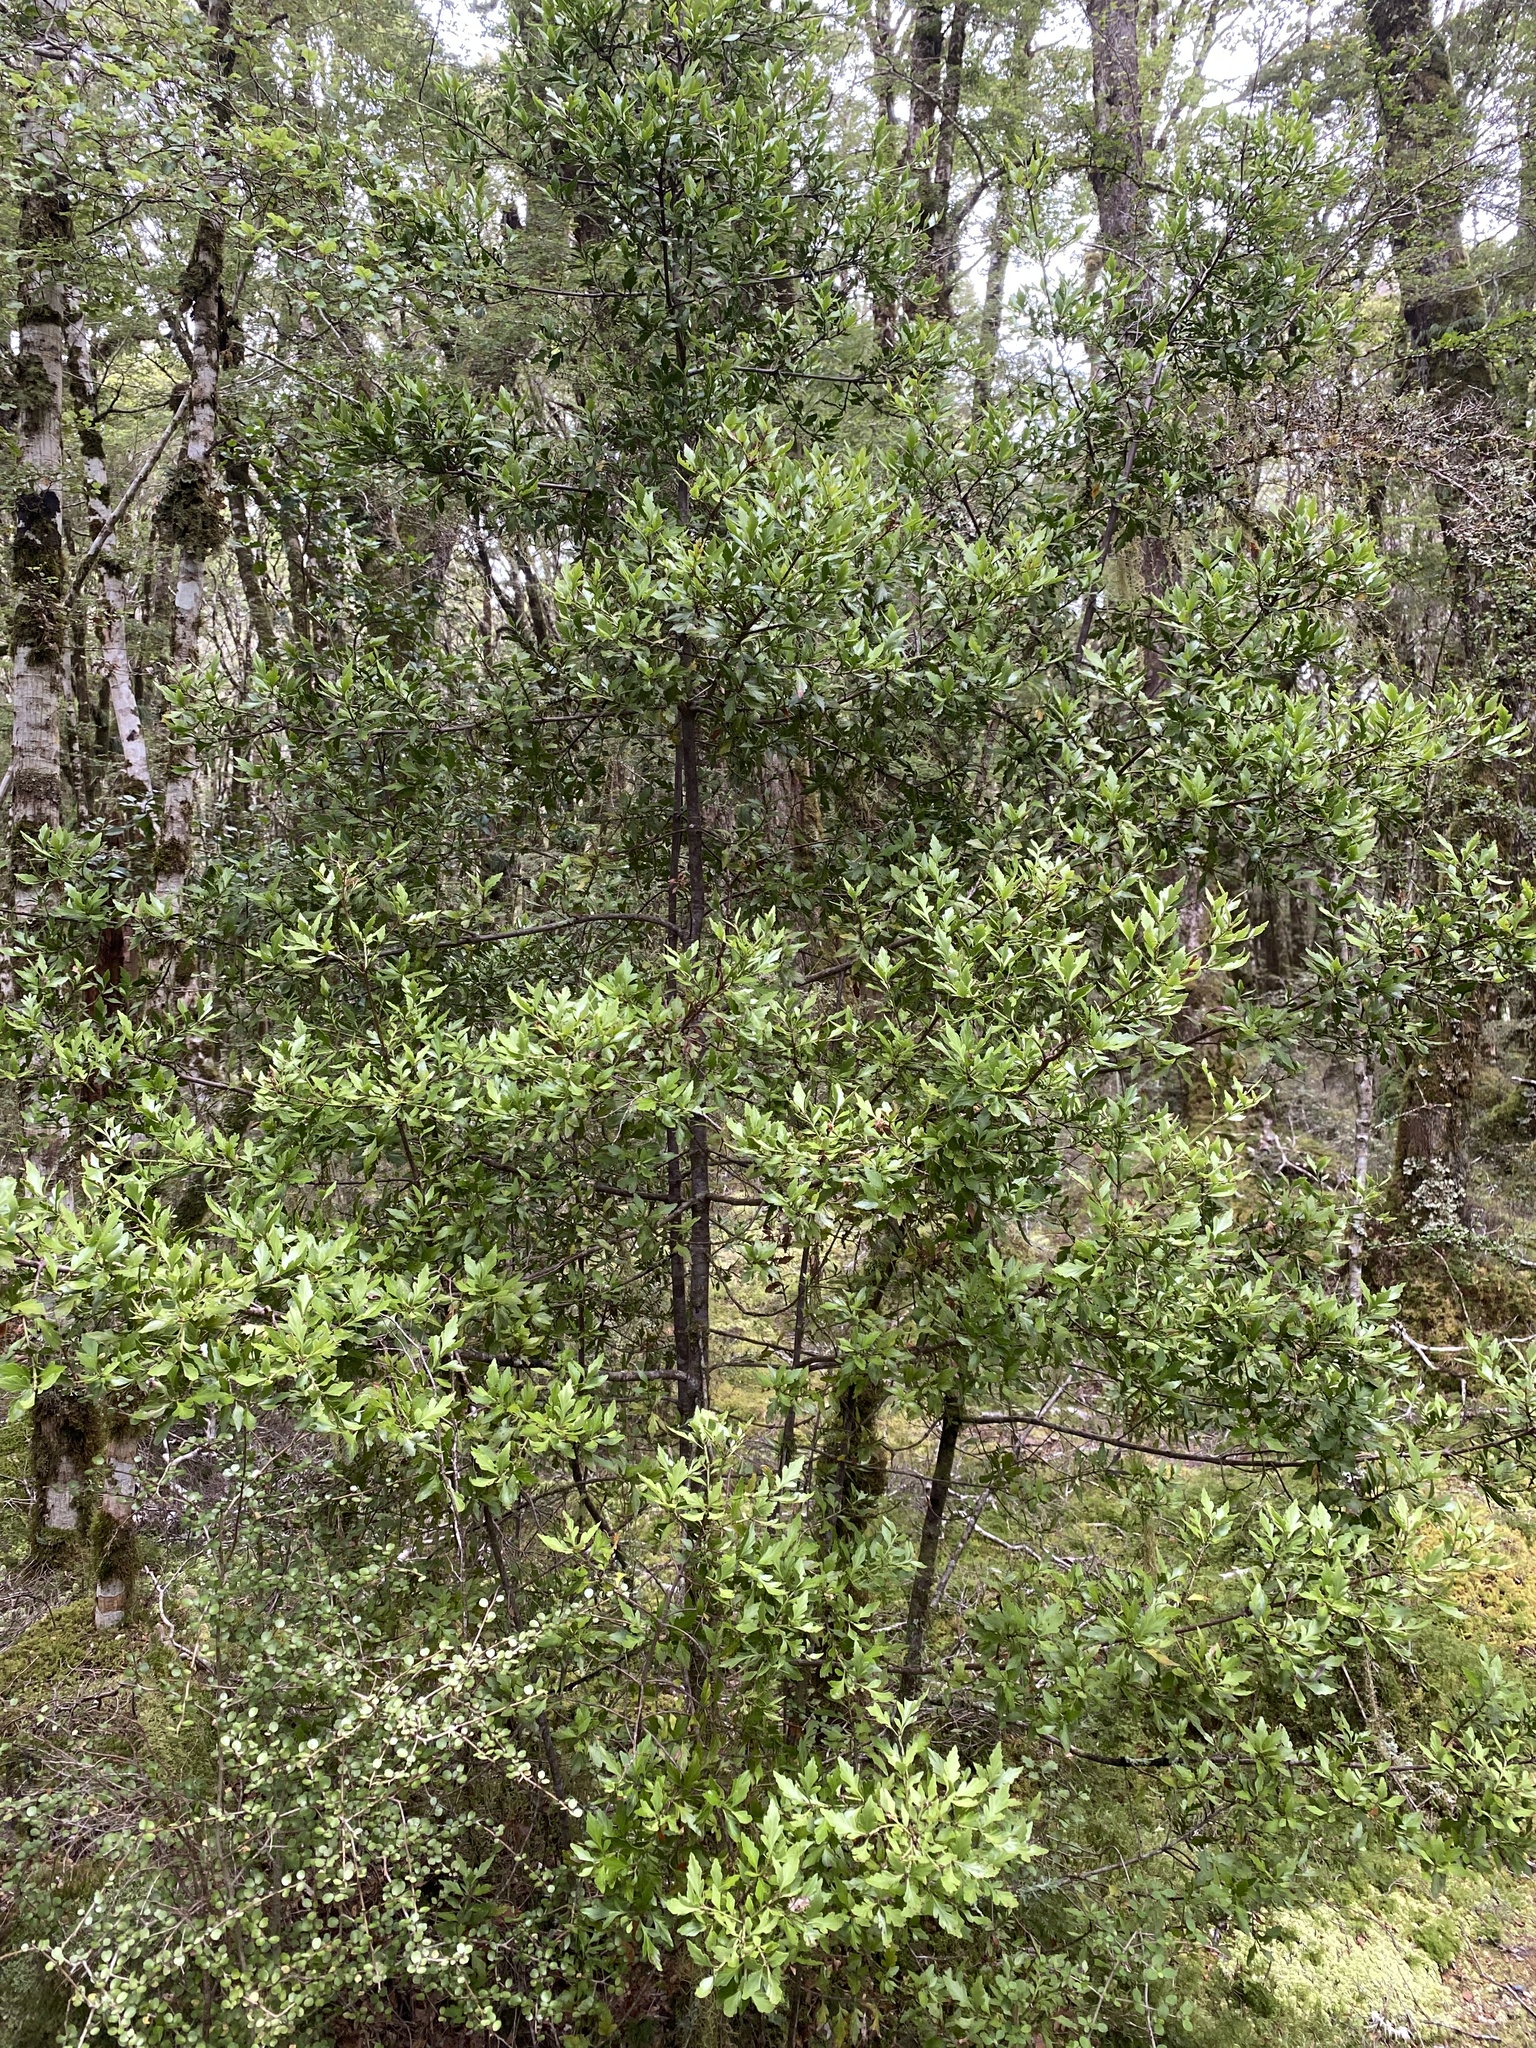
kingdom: Plantae
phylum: Tracheophyta
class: Pinopsida
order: Pinales
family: Phyllocladaceae
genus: Phyllocladus
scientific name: Phyllocladus trichomanoides
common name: Celery pine
